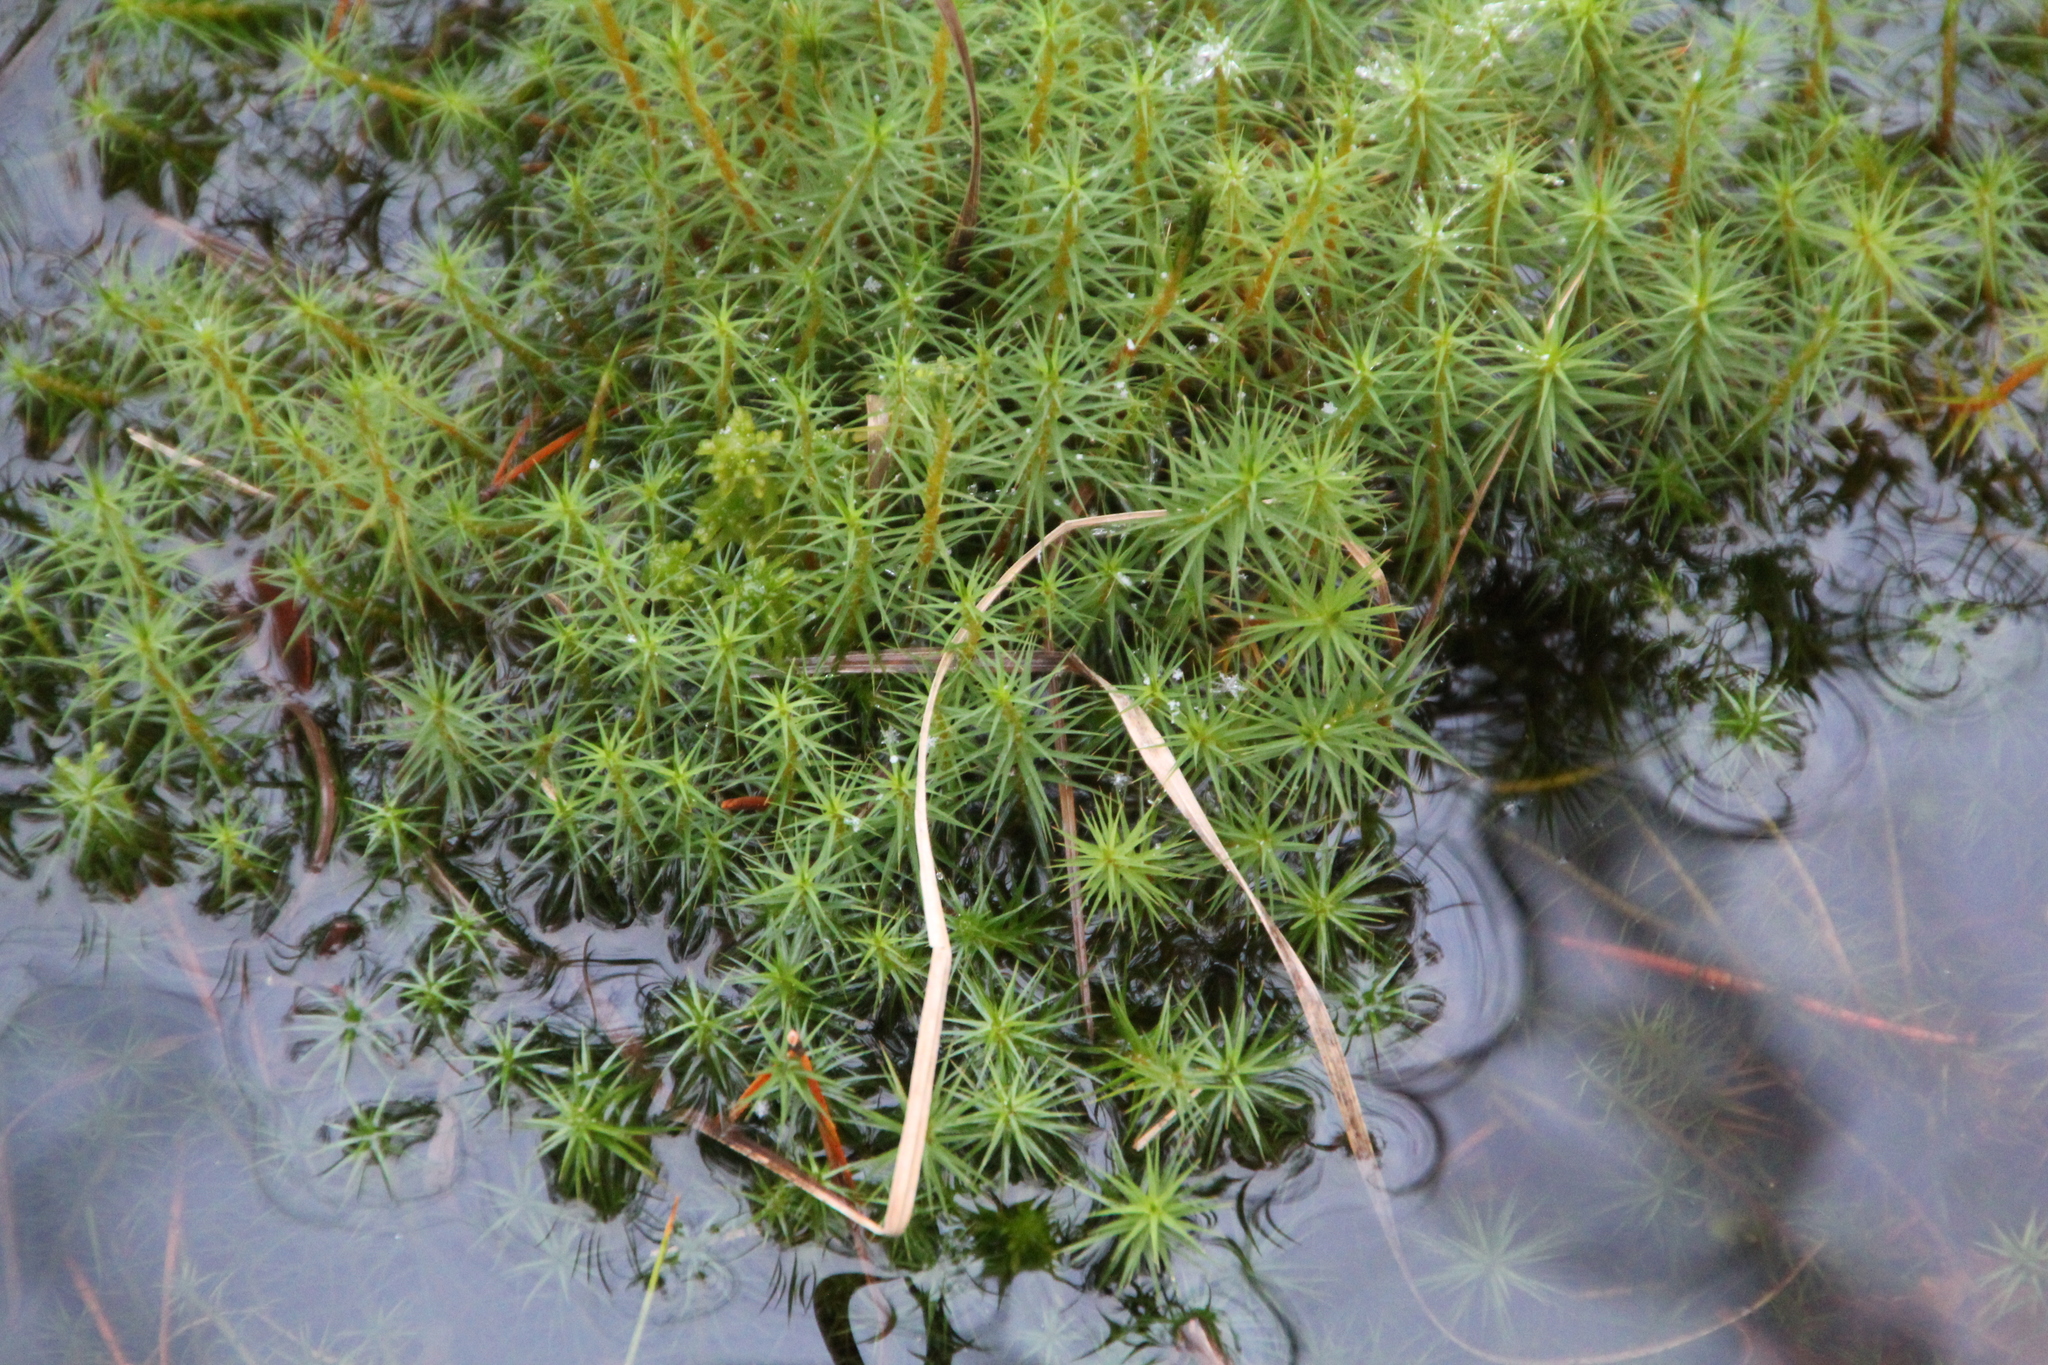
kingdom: Plantae
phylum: Bryophyta
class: Polytrichopsida
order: Polytrichales
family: Polytrichaceae
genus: Polytrichum
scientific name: Polytrichum commune
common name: Common haircap
